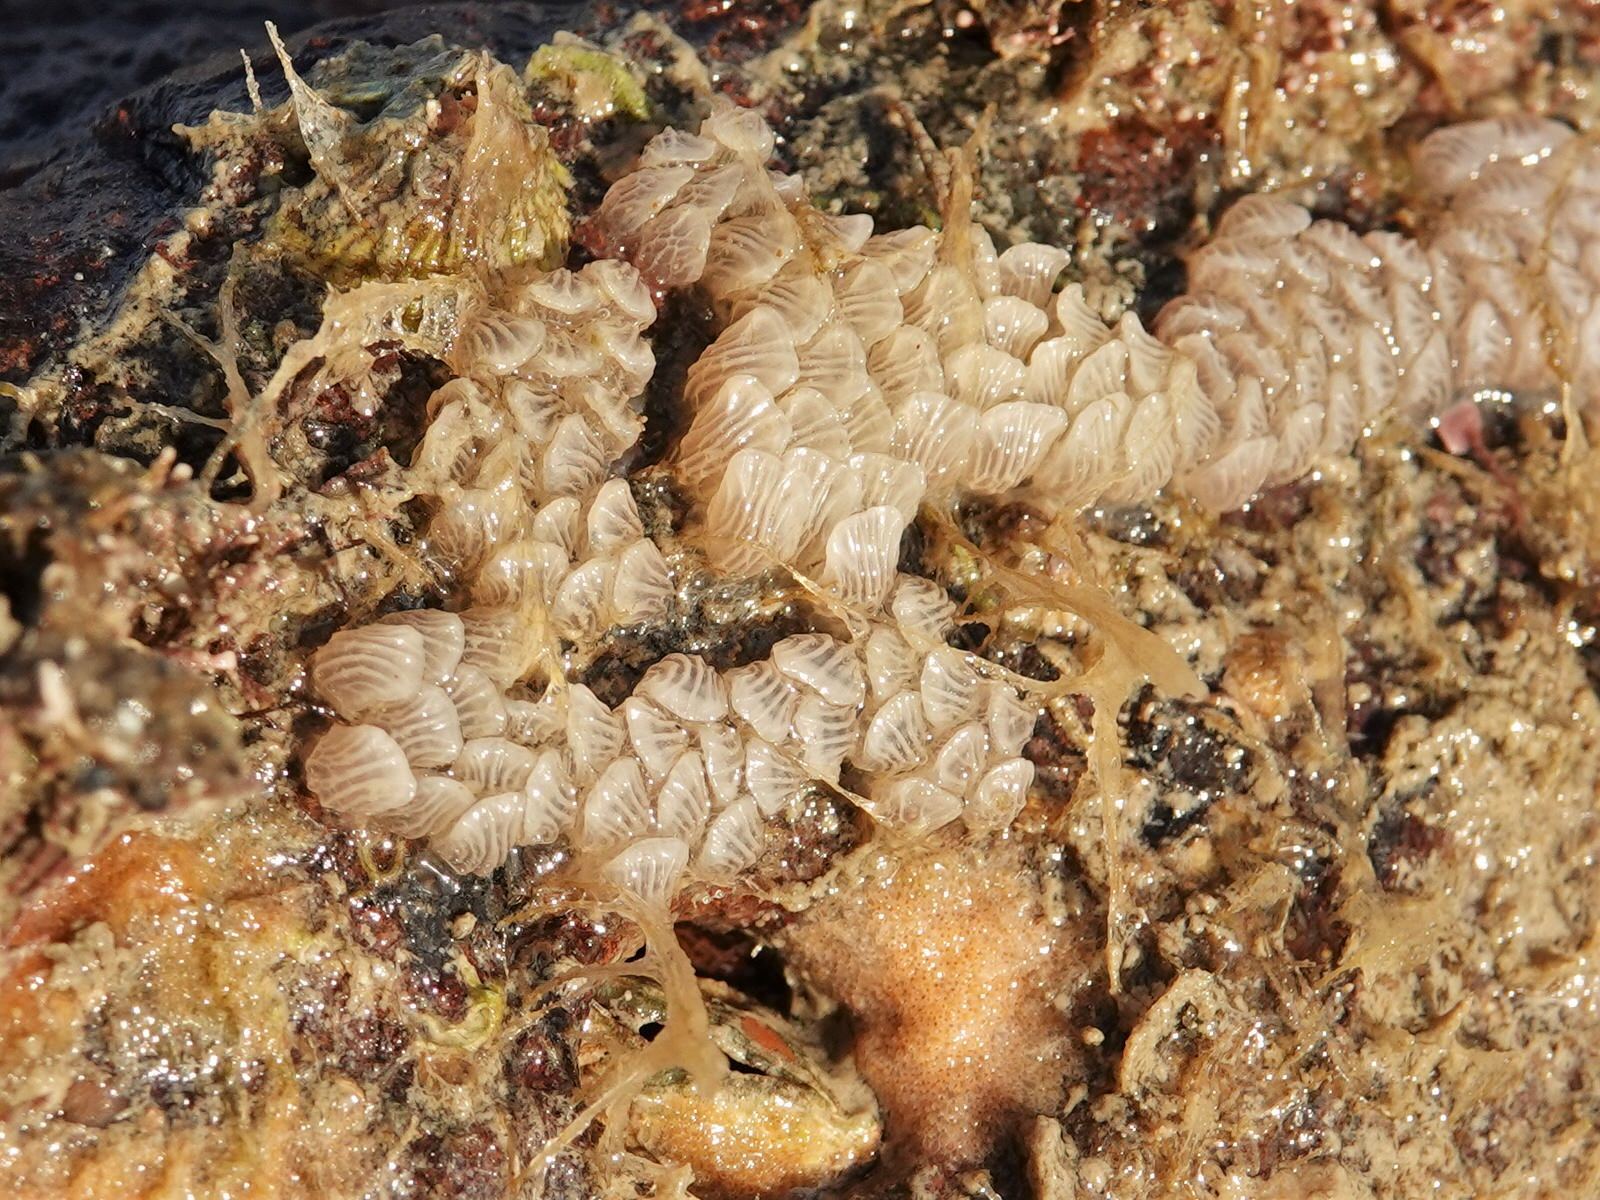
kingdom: Animalia
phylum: Mollusca
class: Gastropoda
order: Neogastropoda
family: Cominellidae
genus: Cominella
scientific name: Cominella virgata
